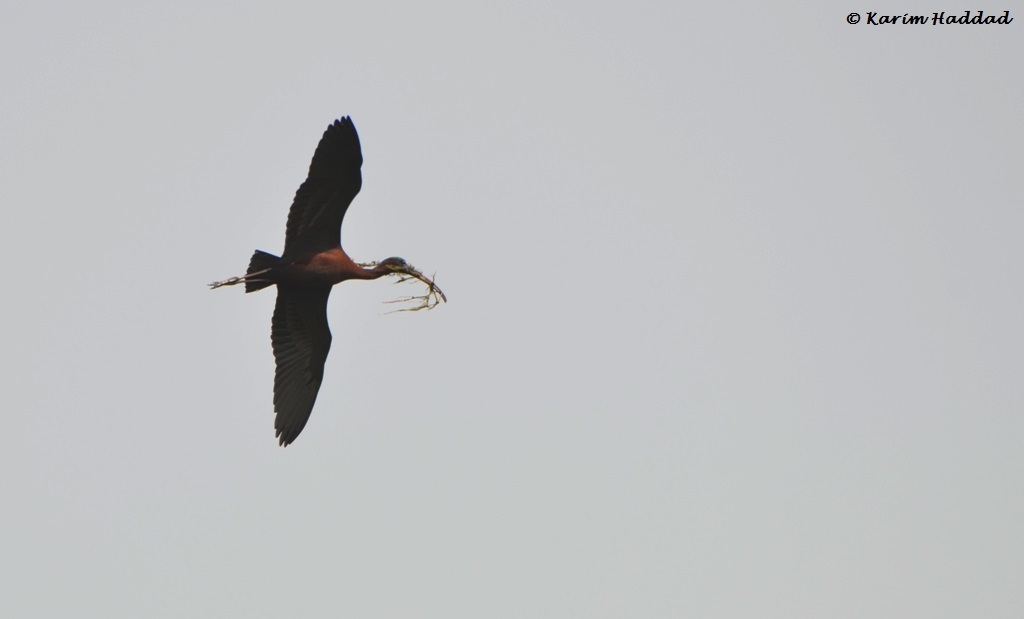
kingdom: Animalia
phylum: Chordata
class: Aves
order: Pelecaniformes
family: Threskiornithidae
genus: Plegadis
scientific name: Plegadis falcinellus
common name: Glossy ibis
